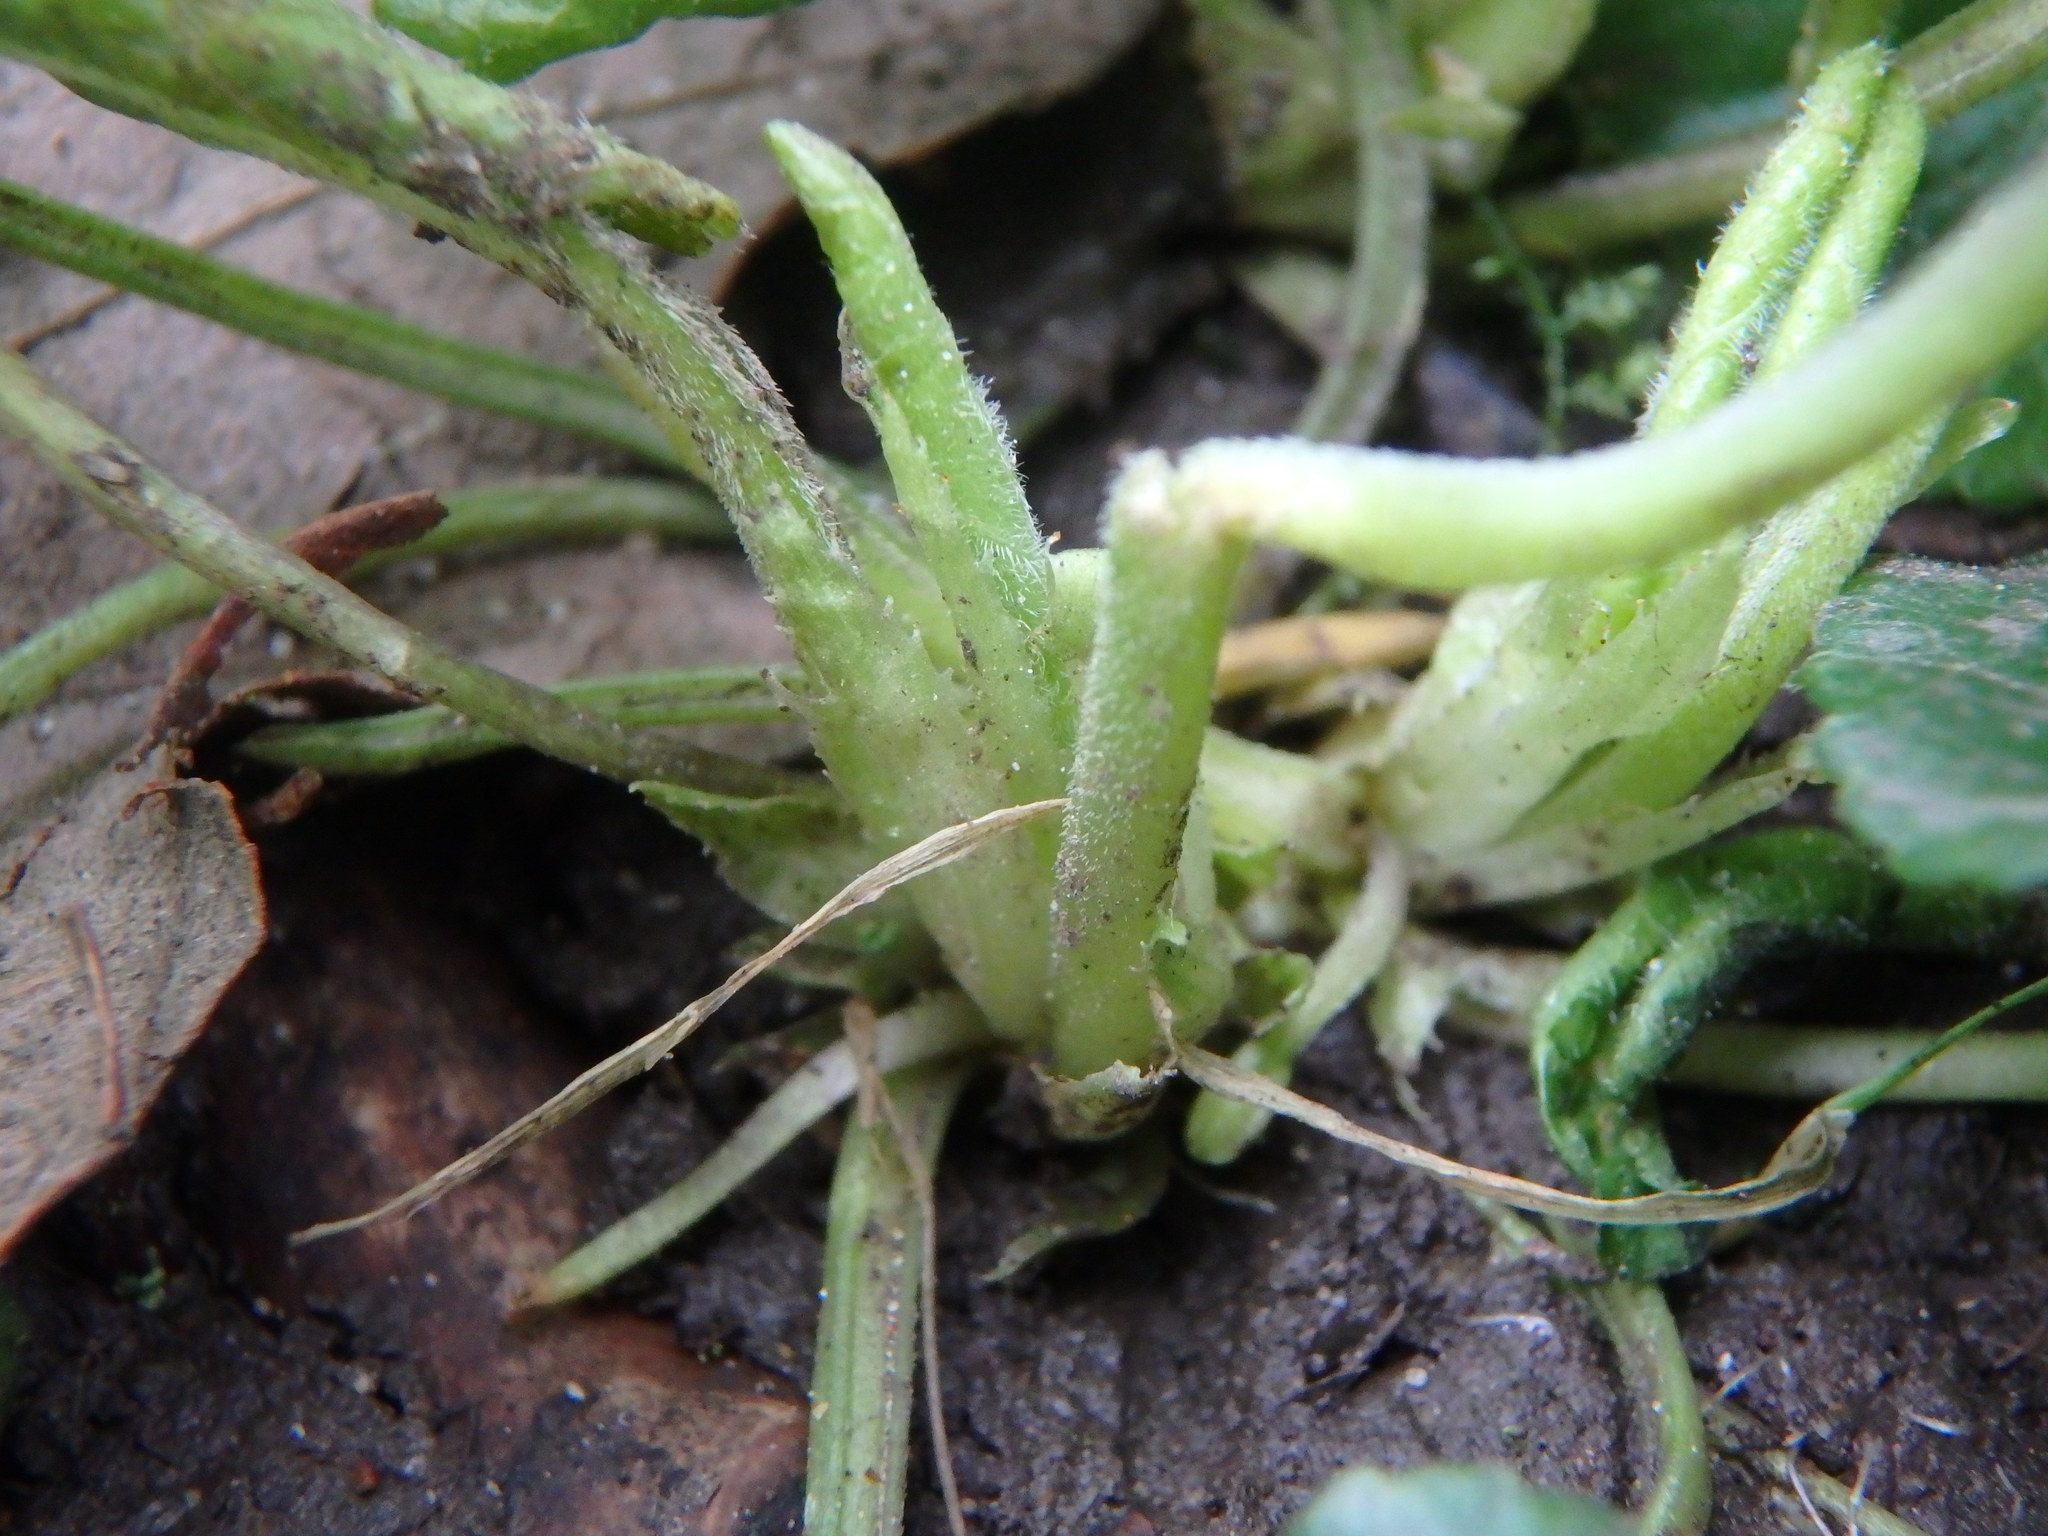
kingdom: Plantae
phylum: Tracheophyta
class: Magnoliopsida
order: Malpighiales
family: Violaceae
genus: Viola
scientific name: Viola odorata
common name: Sweet violet
